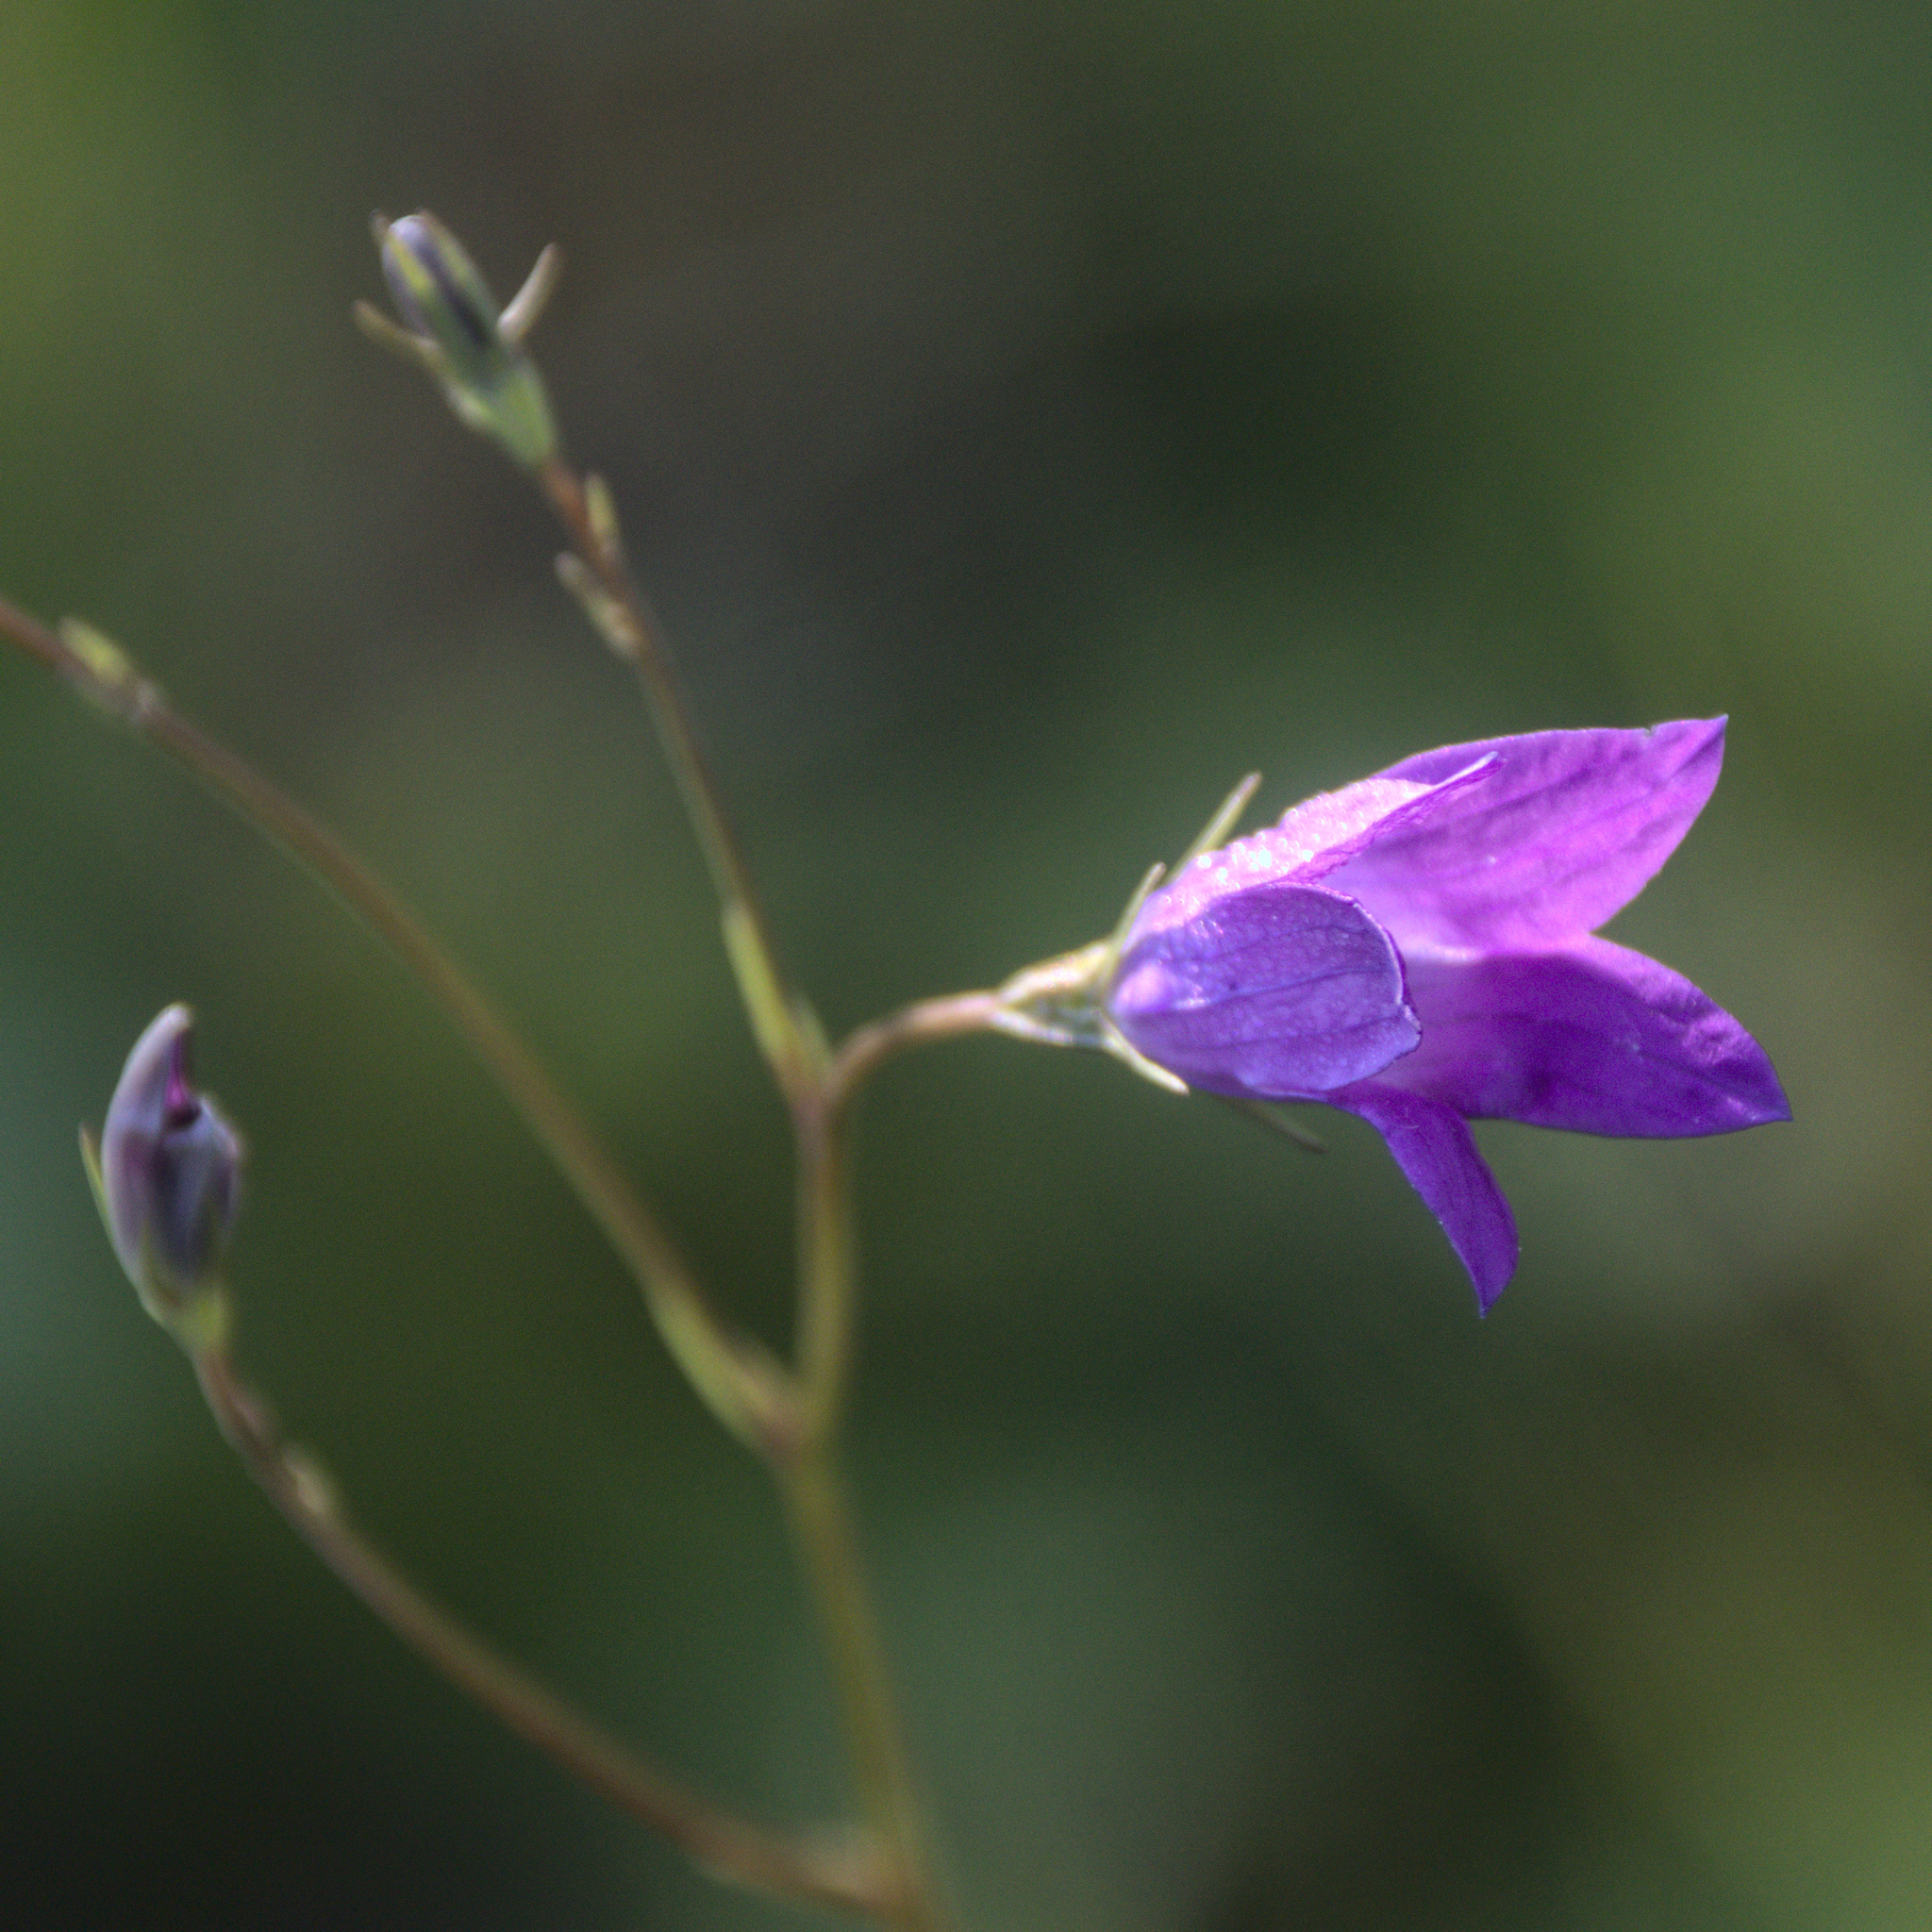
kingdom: Plantae
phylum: Tracheophyta
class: Magnoliopsida
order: Asterales
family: Campanulaceae
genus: Campanula
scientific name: Campanula patula
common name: Spreading bellflower
